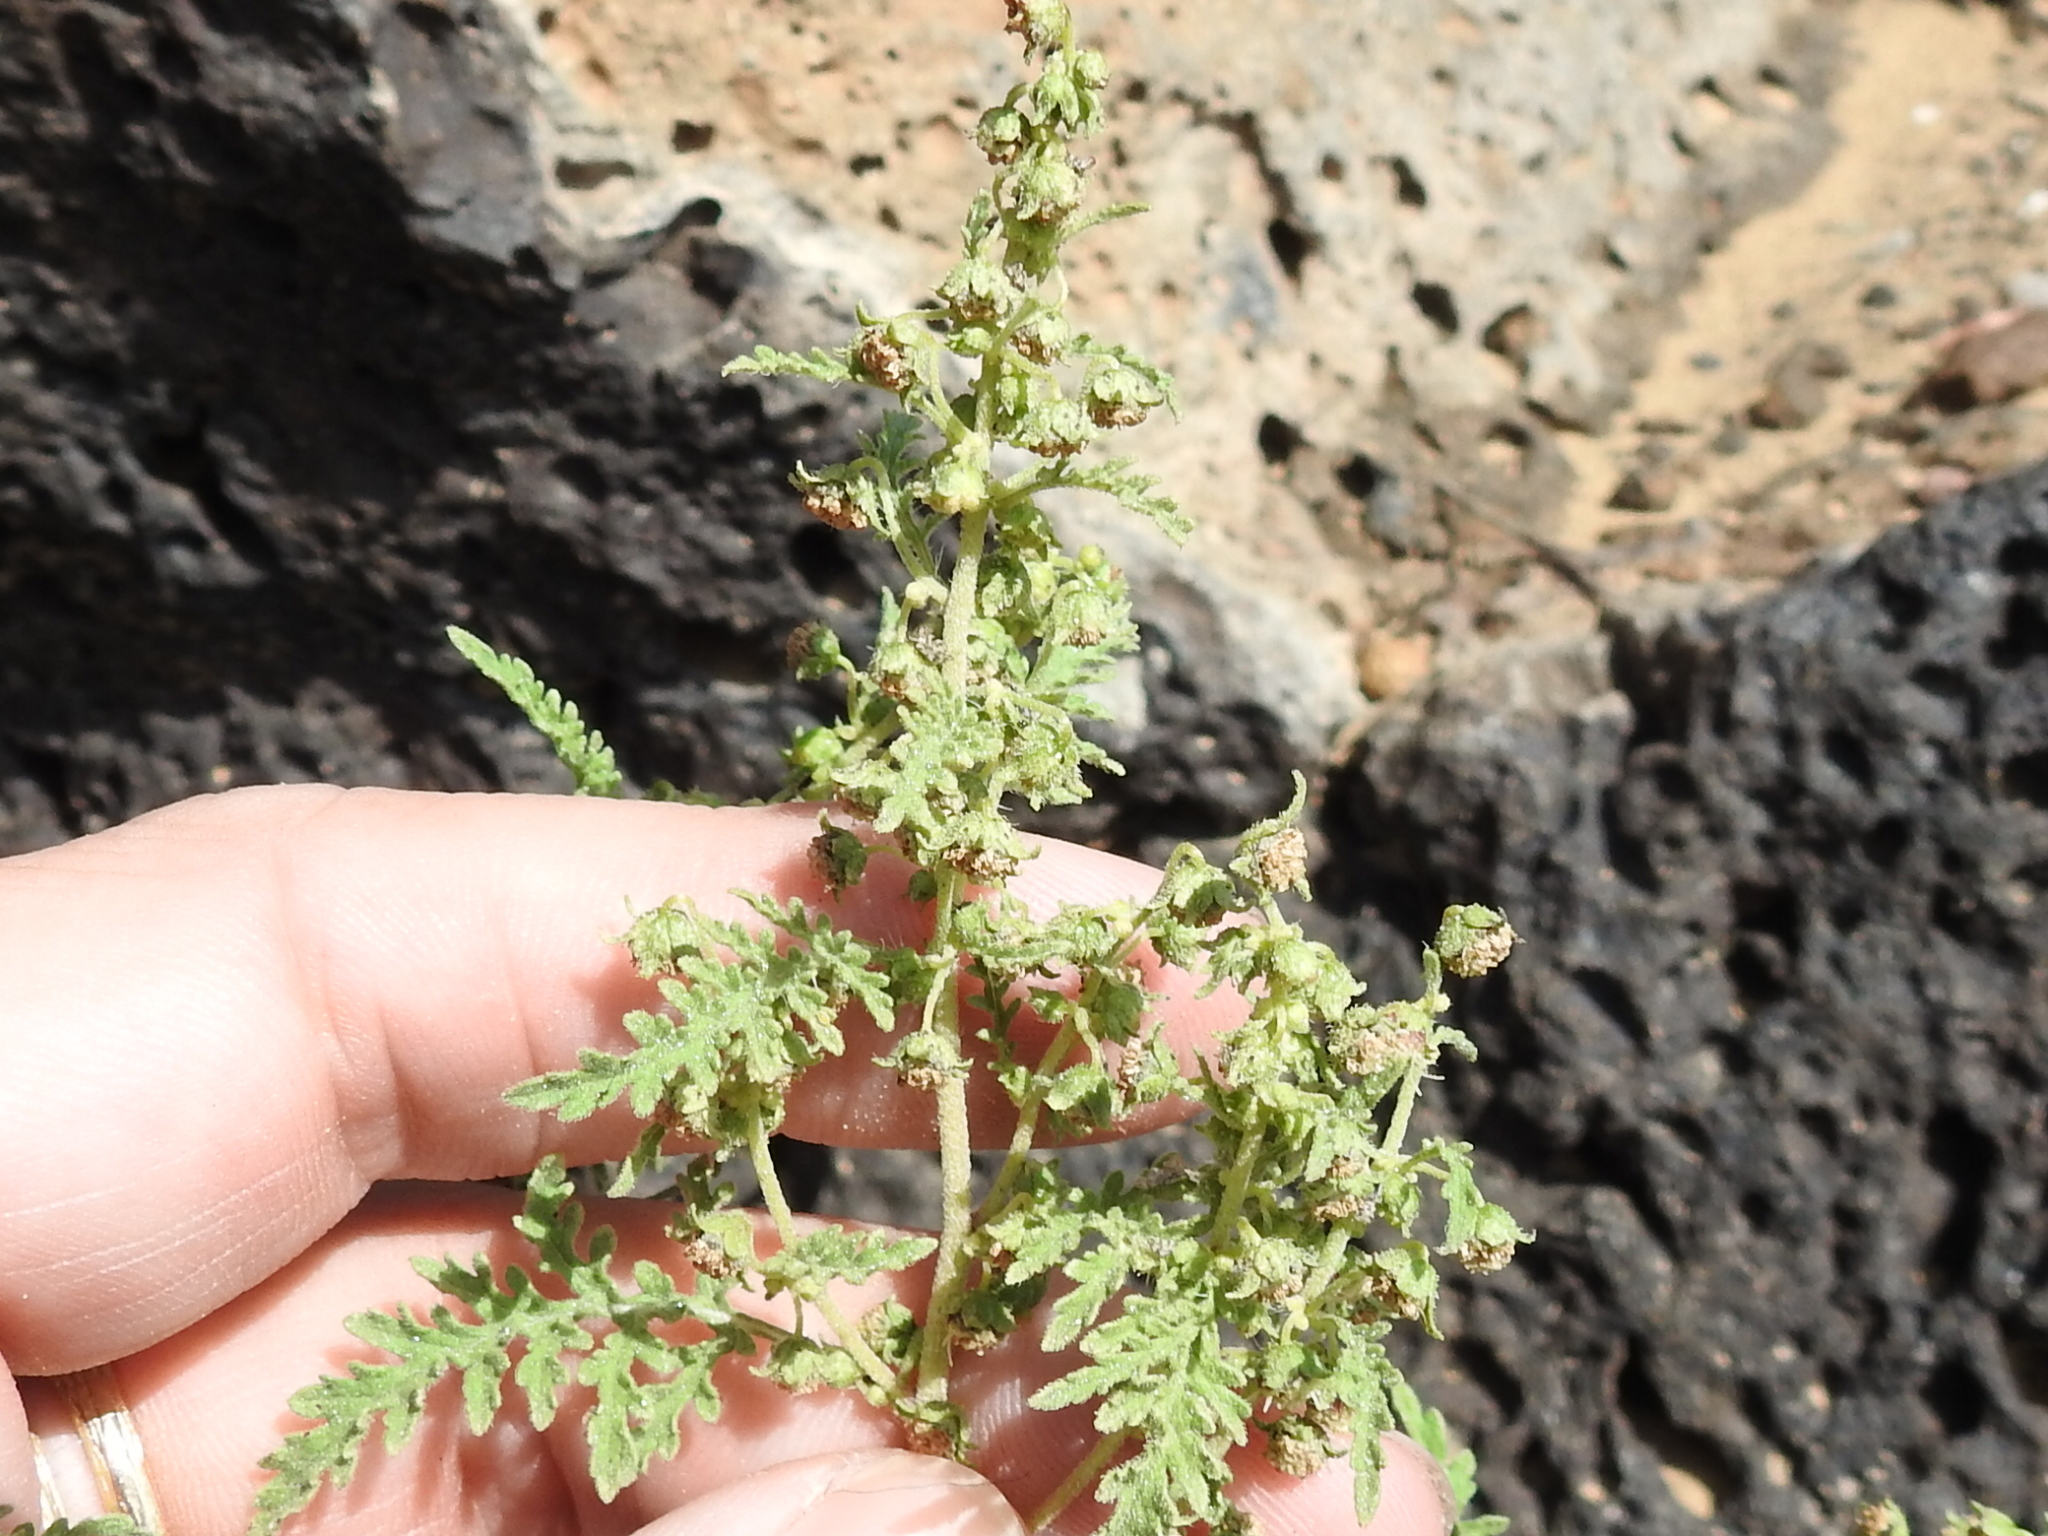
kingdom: Plantae
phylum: Tracheophyta
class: Magnoliopsida
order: Asterales
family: Asteraceae
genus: Hedosyne
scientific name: Hedosyne ambrosiifolia
